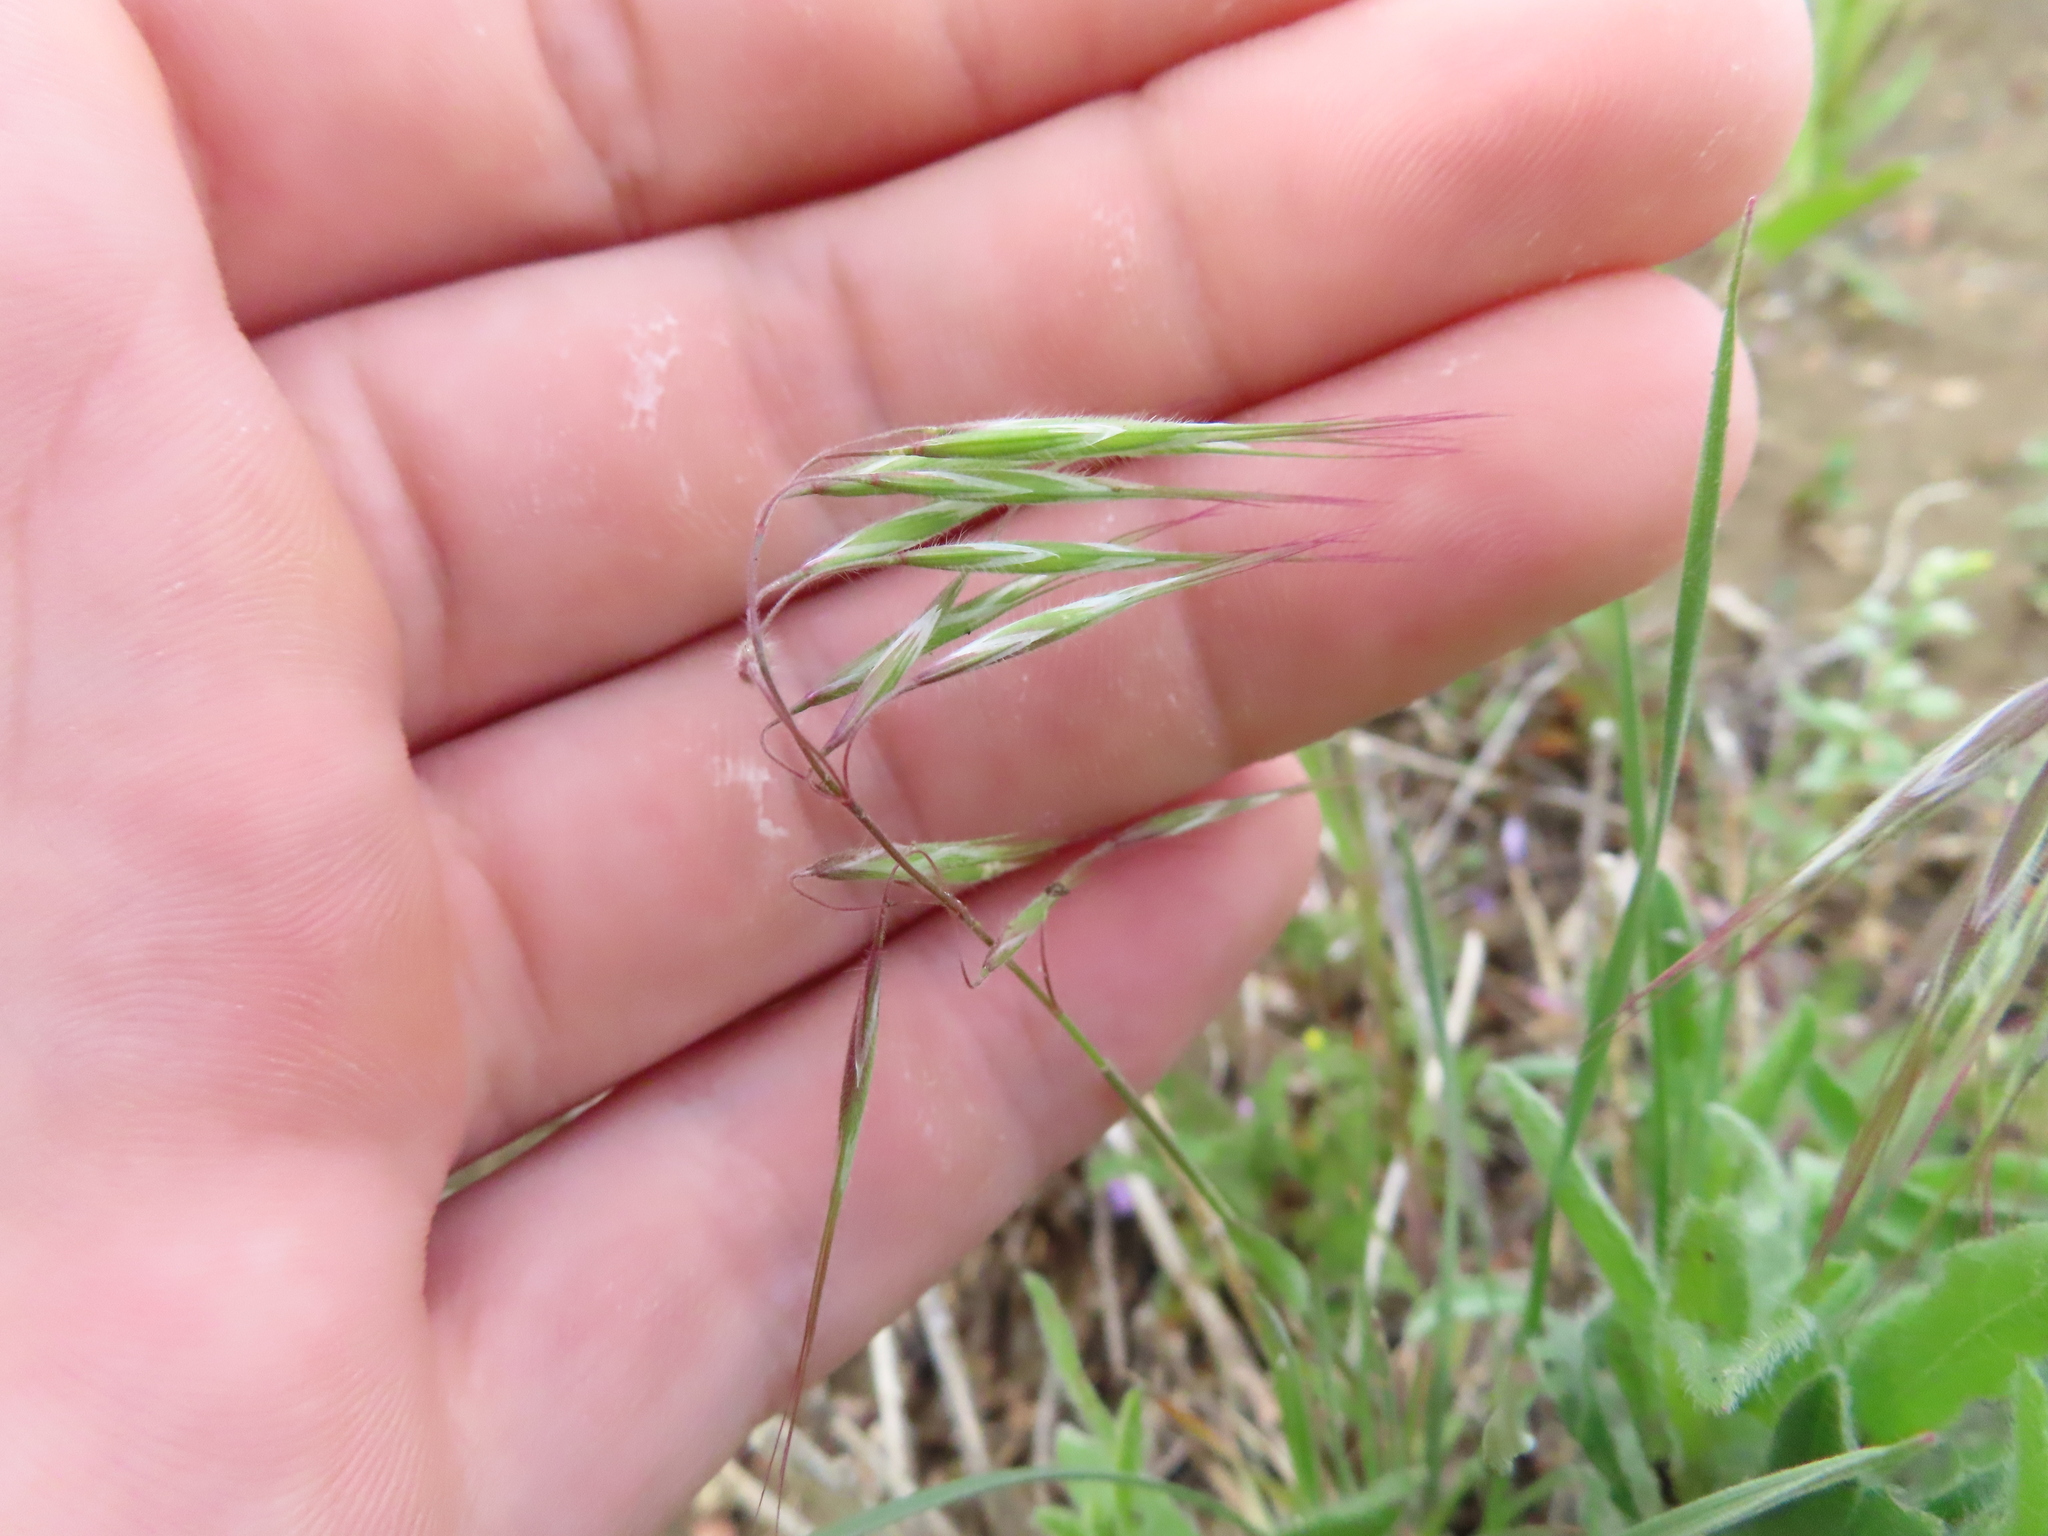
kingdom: Plantae
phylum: Tracheophyta
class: Liliopsida
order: Poales
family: Poaceae
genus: Bromus
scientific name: Bromus tectorum
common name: Cheatgrass
